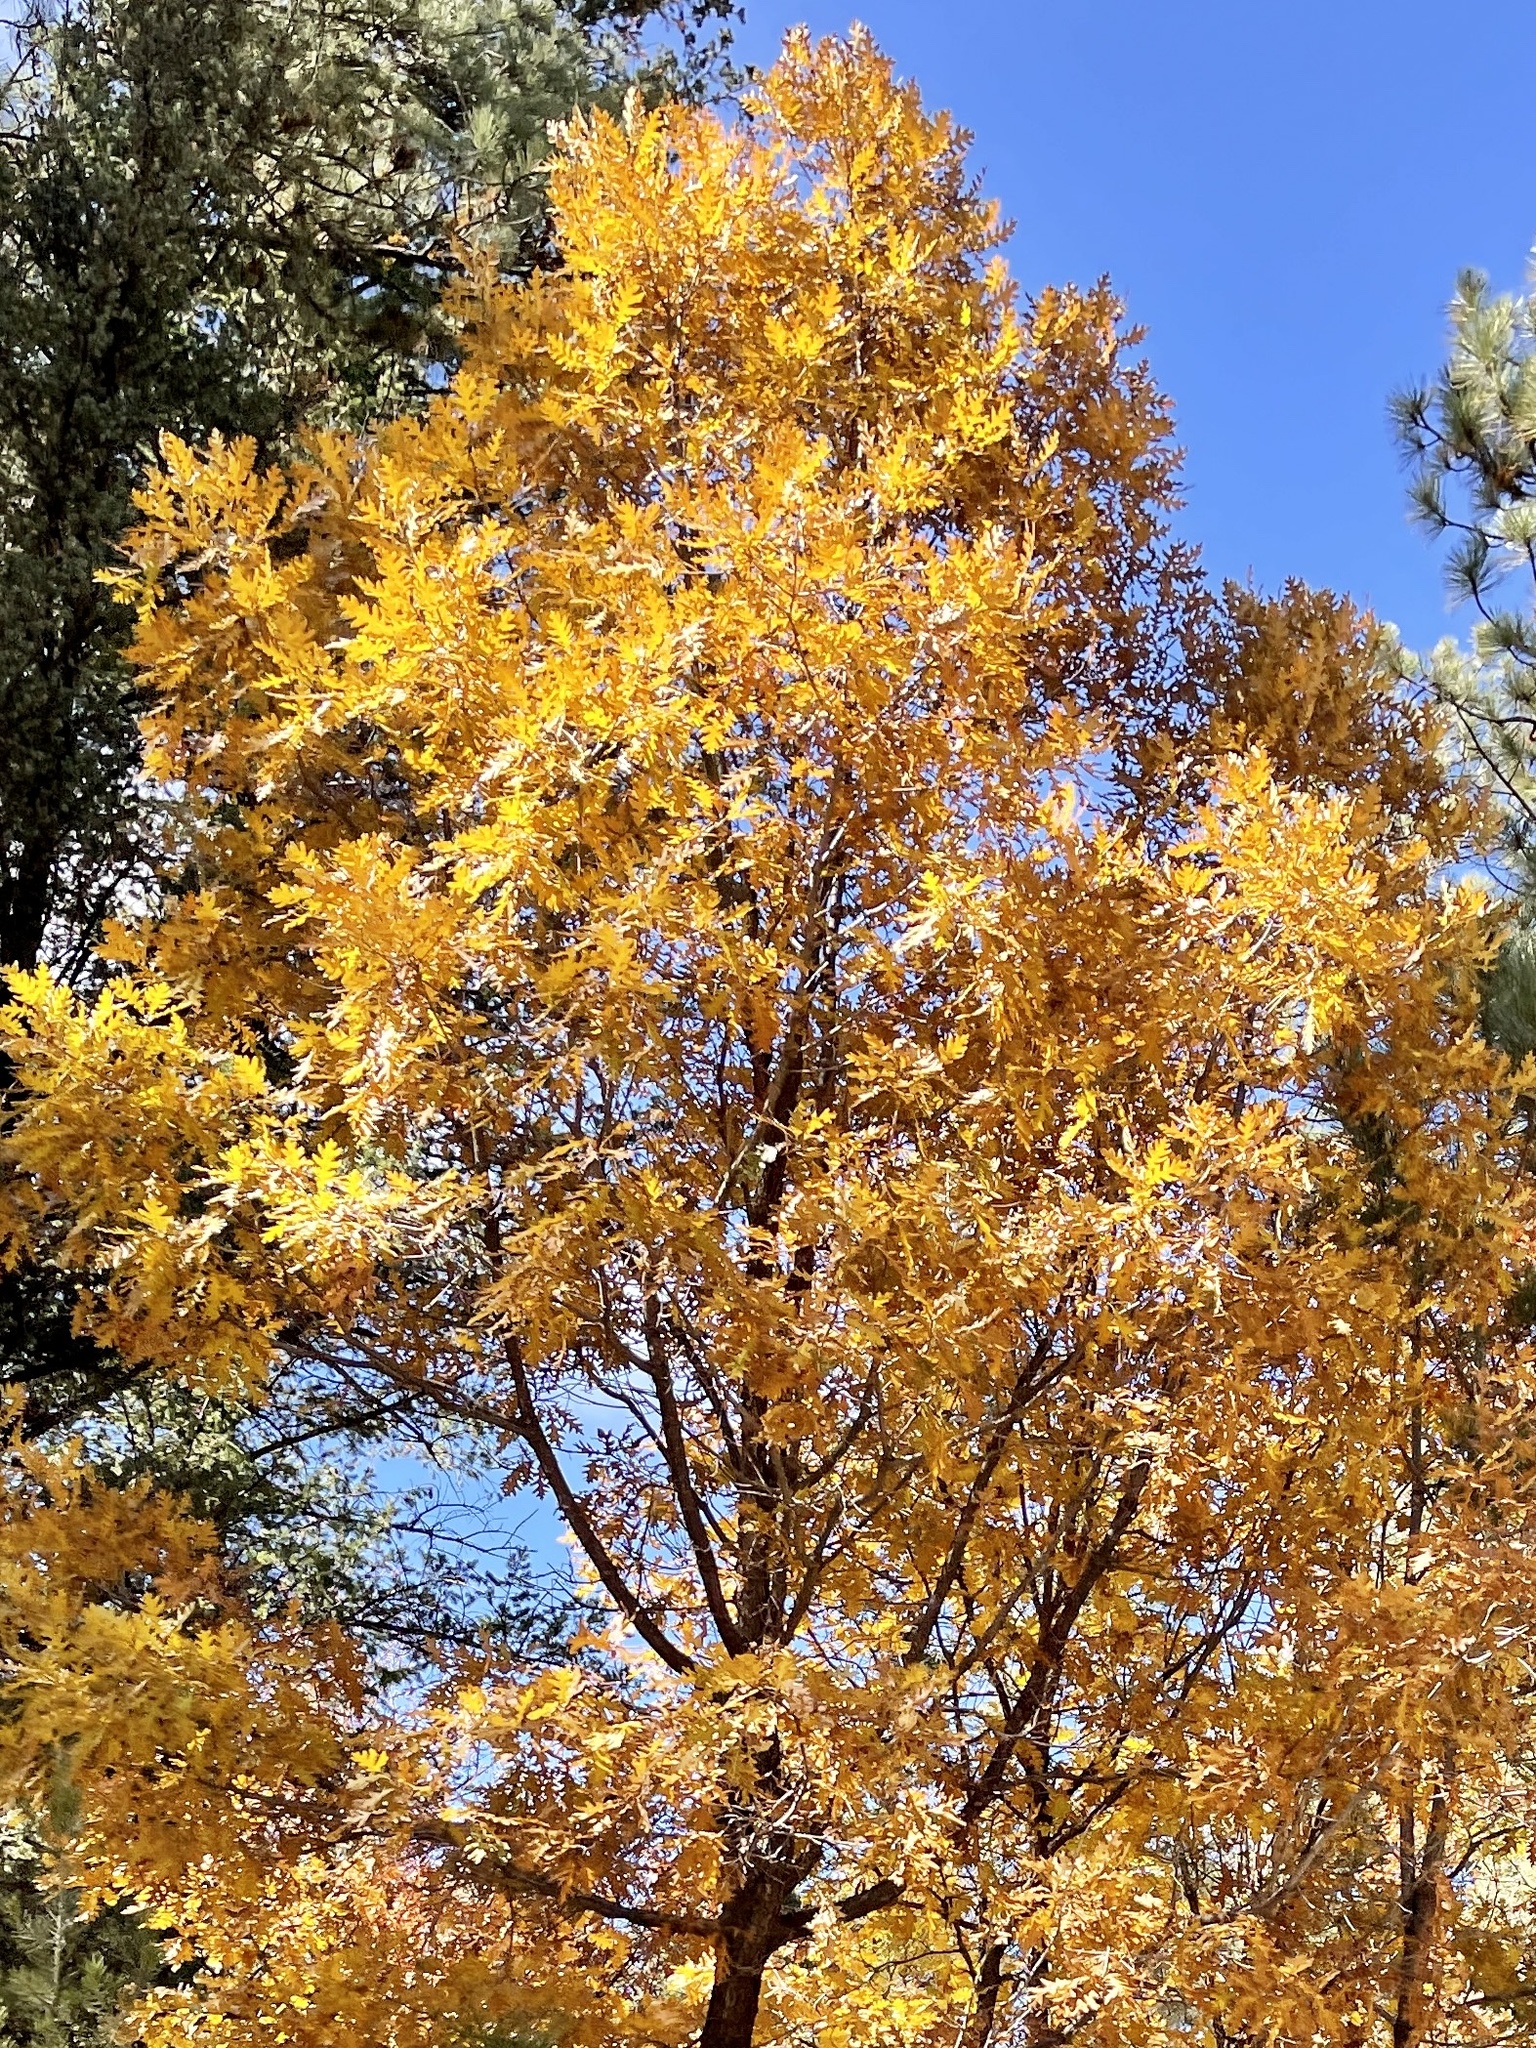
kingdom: Plantae
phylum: Tracheophyta
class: Magnoliopsida
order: Fagales
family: Fagaceae
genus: Quercus
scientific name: Quercus gambelii
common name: Gambel oak
